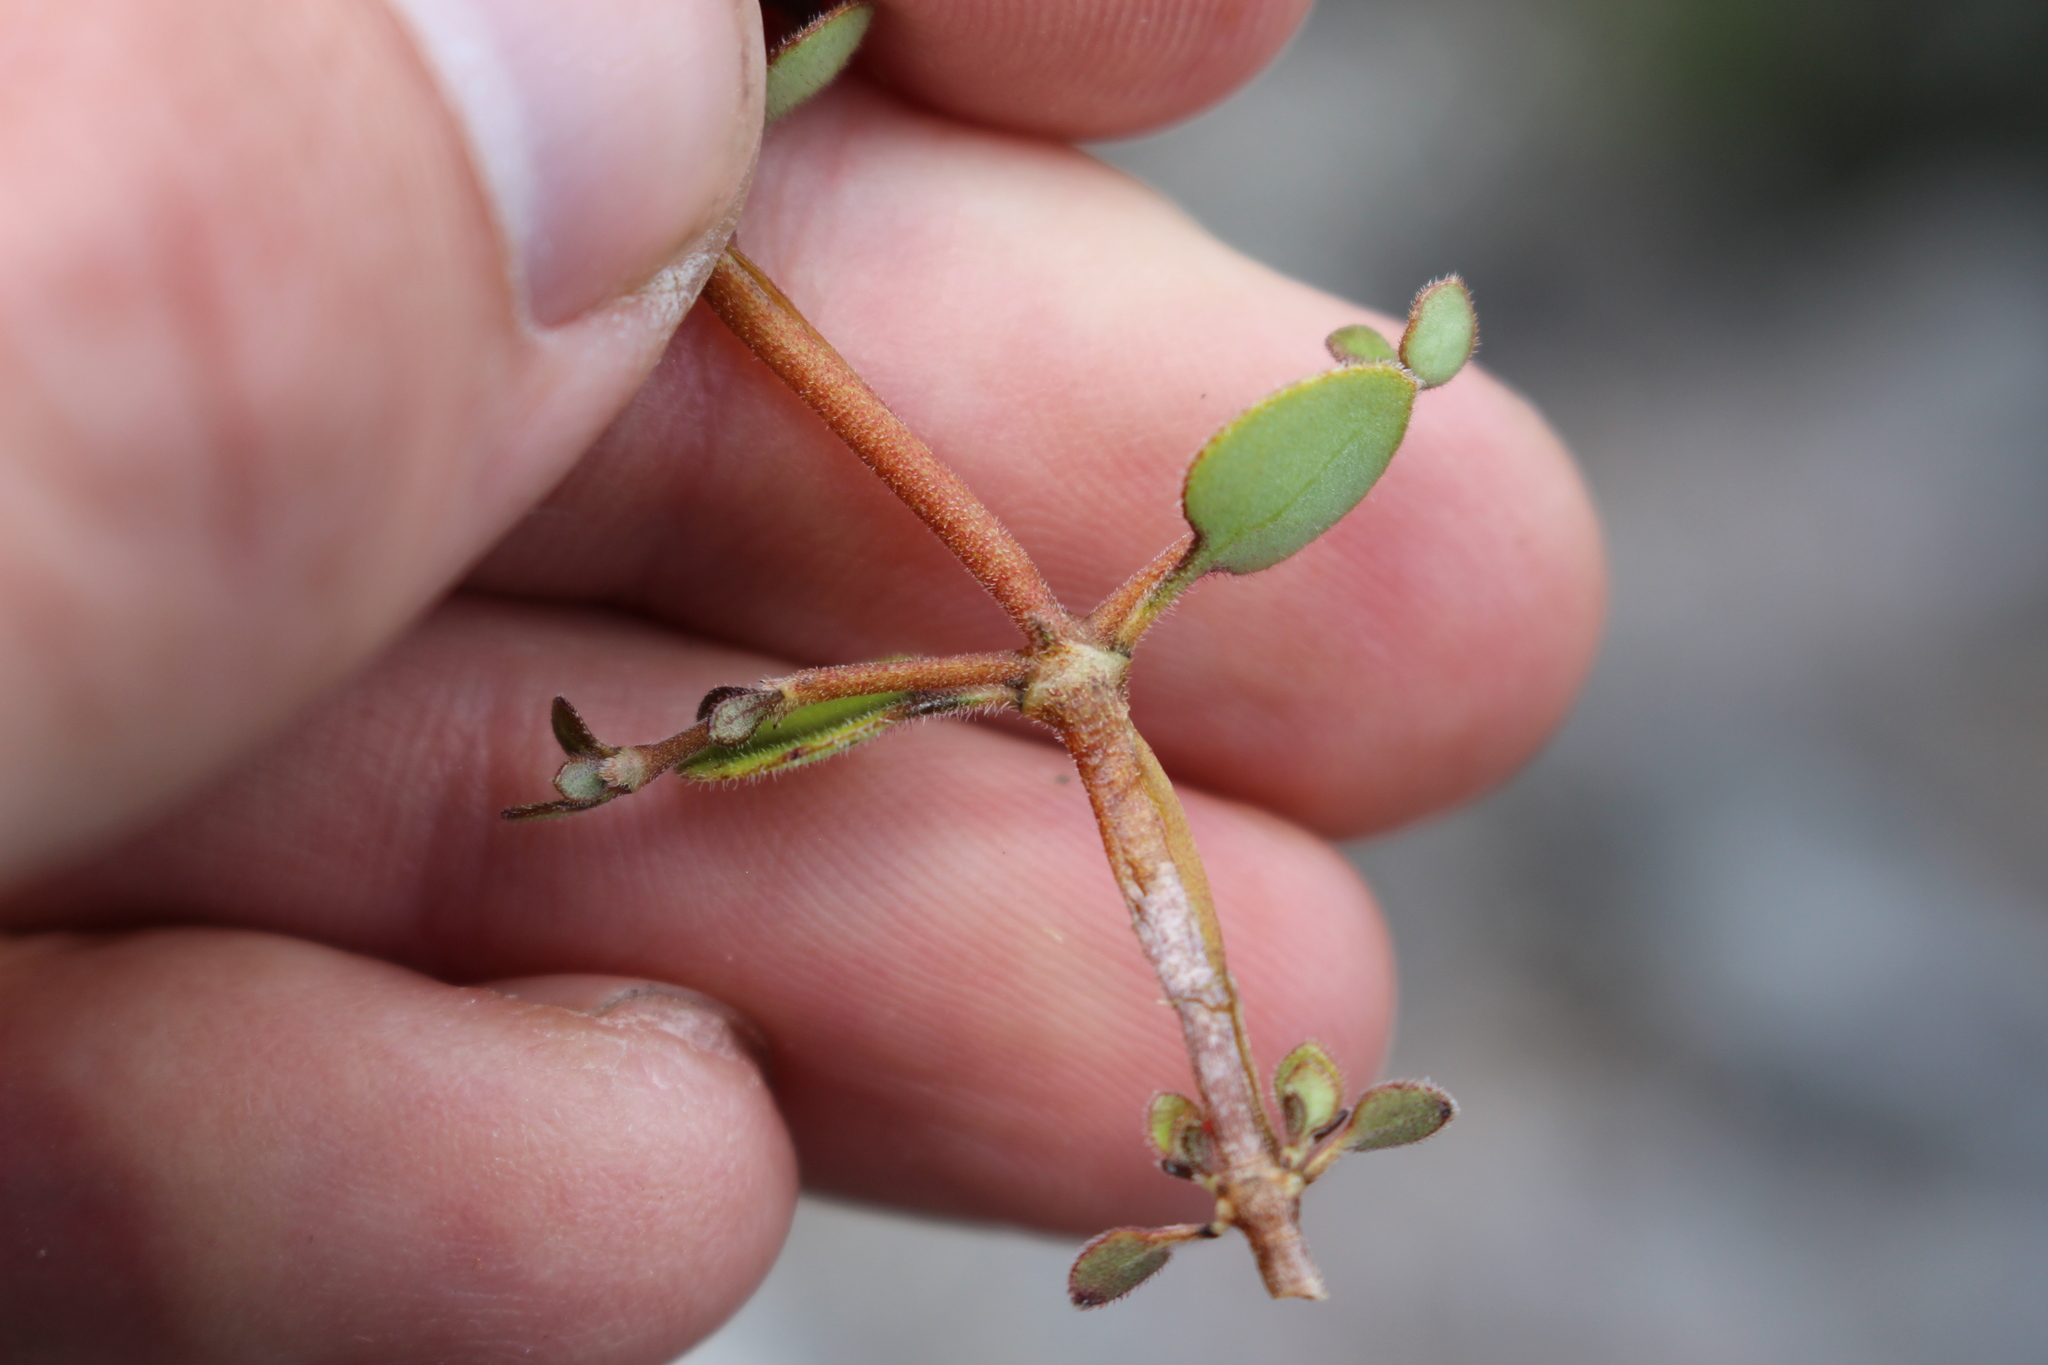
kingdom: Plantae
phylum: Tracheophyta
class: Magnoliopsida
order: Gentianales
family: Rubiaceae
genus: Coprosma
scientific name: Coprosma crassifolia
